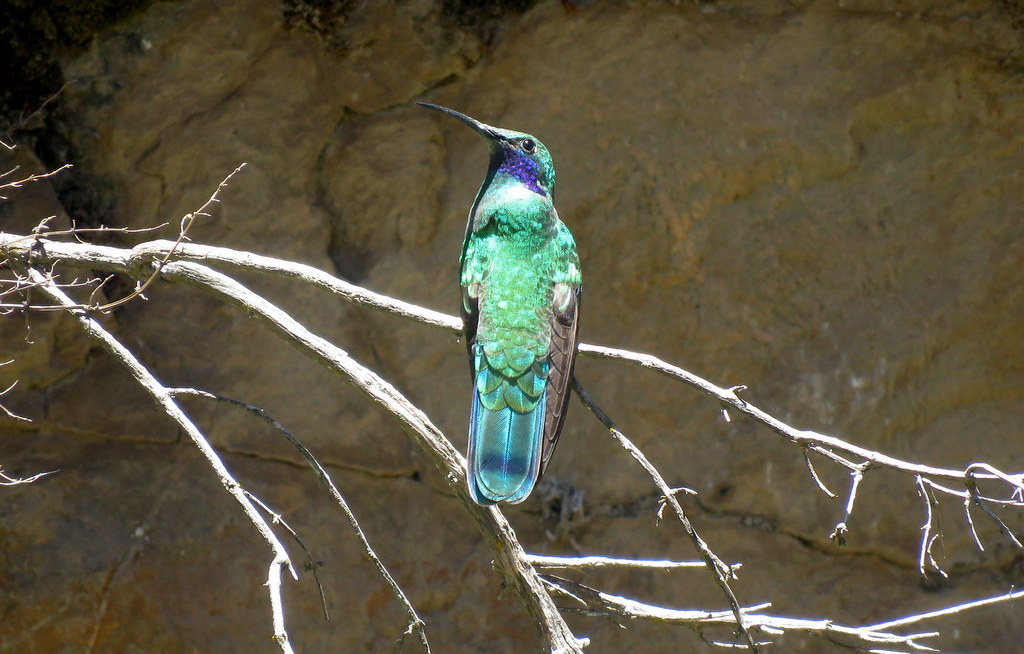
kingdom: Animalia
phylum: Chordata
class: Aves
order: Apodiformes
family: Trochilidae
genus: Colibri
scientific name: Colibri coruscans
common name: Sparkling violetear
